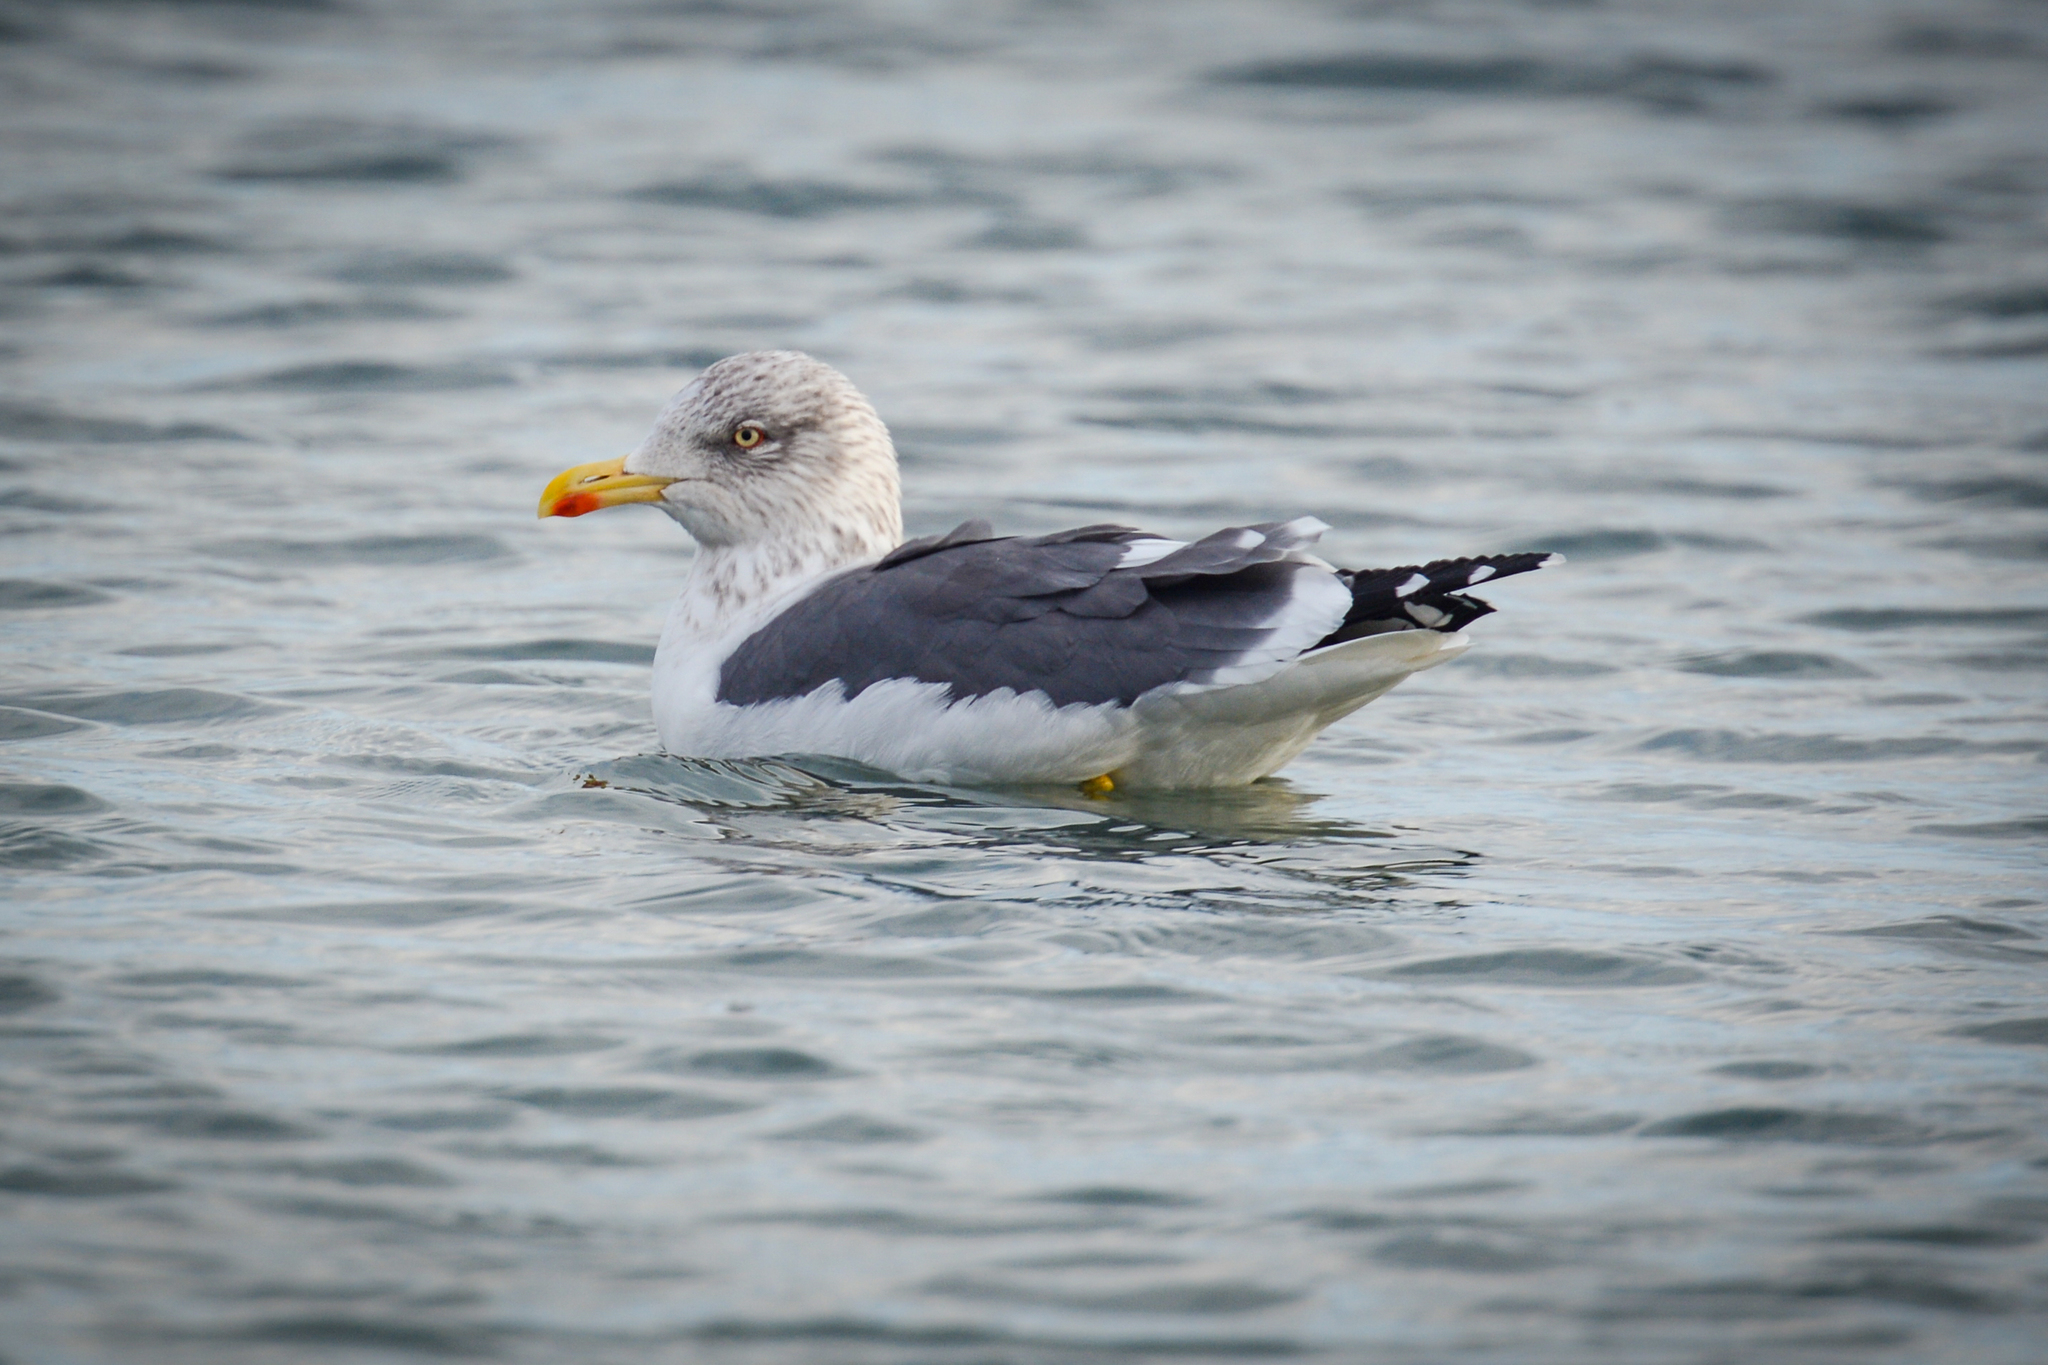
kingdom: Animalia
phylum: Chordata
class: Aves
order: Charadriiformes
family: Laridae
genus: Larus
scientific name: Larus fuscus
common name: Lesser black-backed gull
